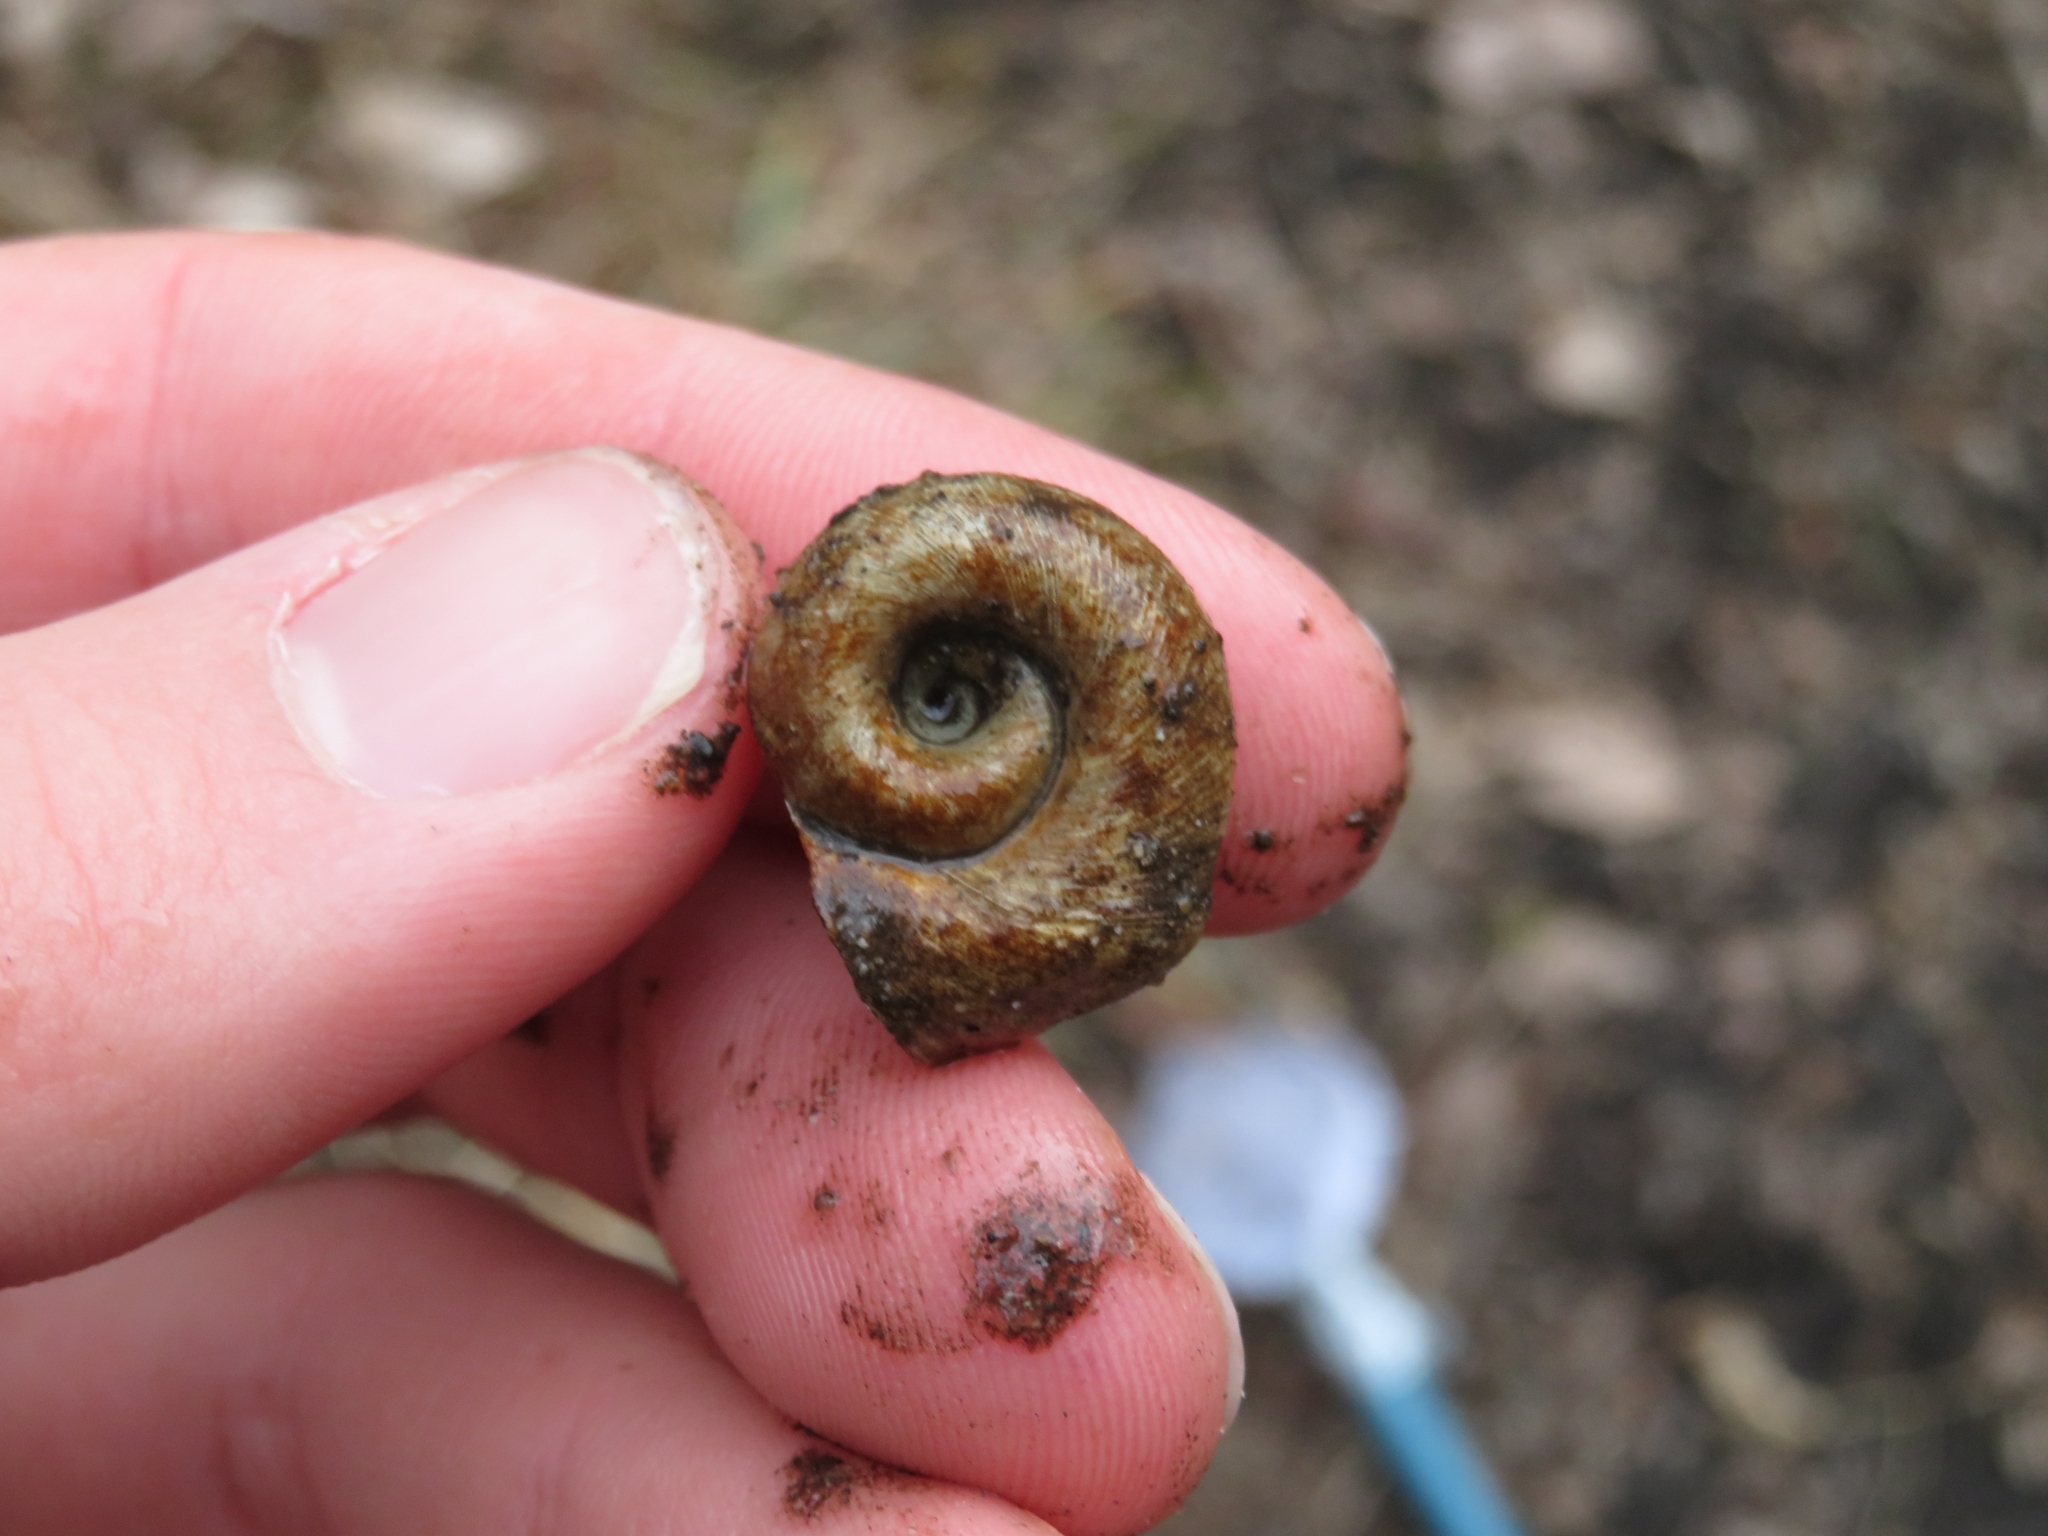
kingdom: Animalia
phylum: Mollusca
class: Gastropoda
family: Planorbidae
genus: Planorbella
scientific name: Planorbella trivolvis
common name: Marsh rams-horn
